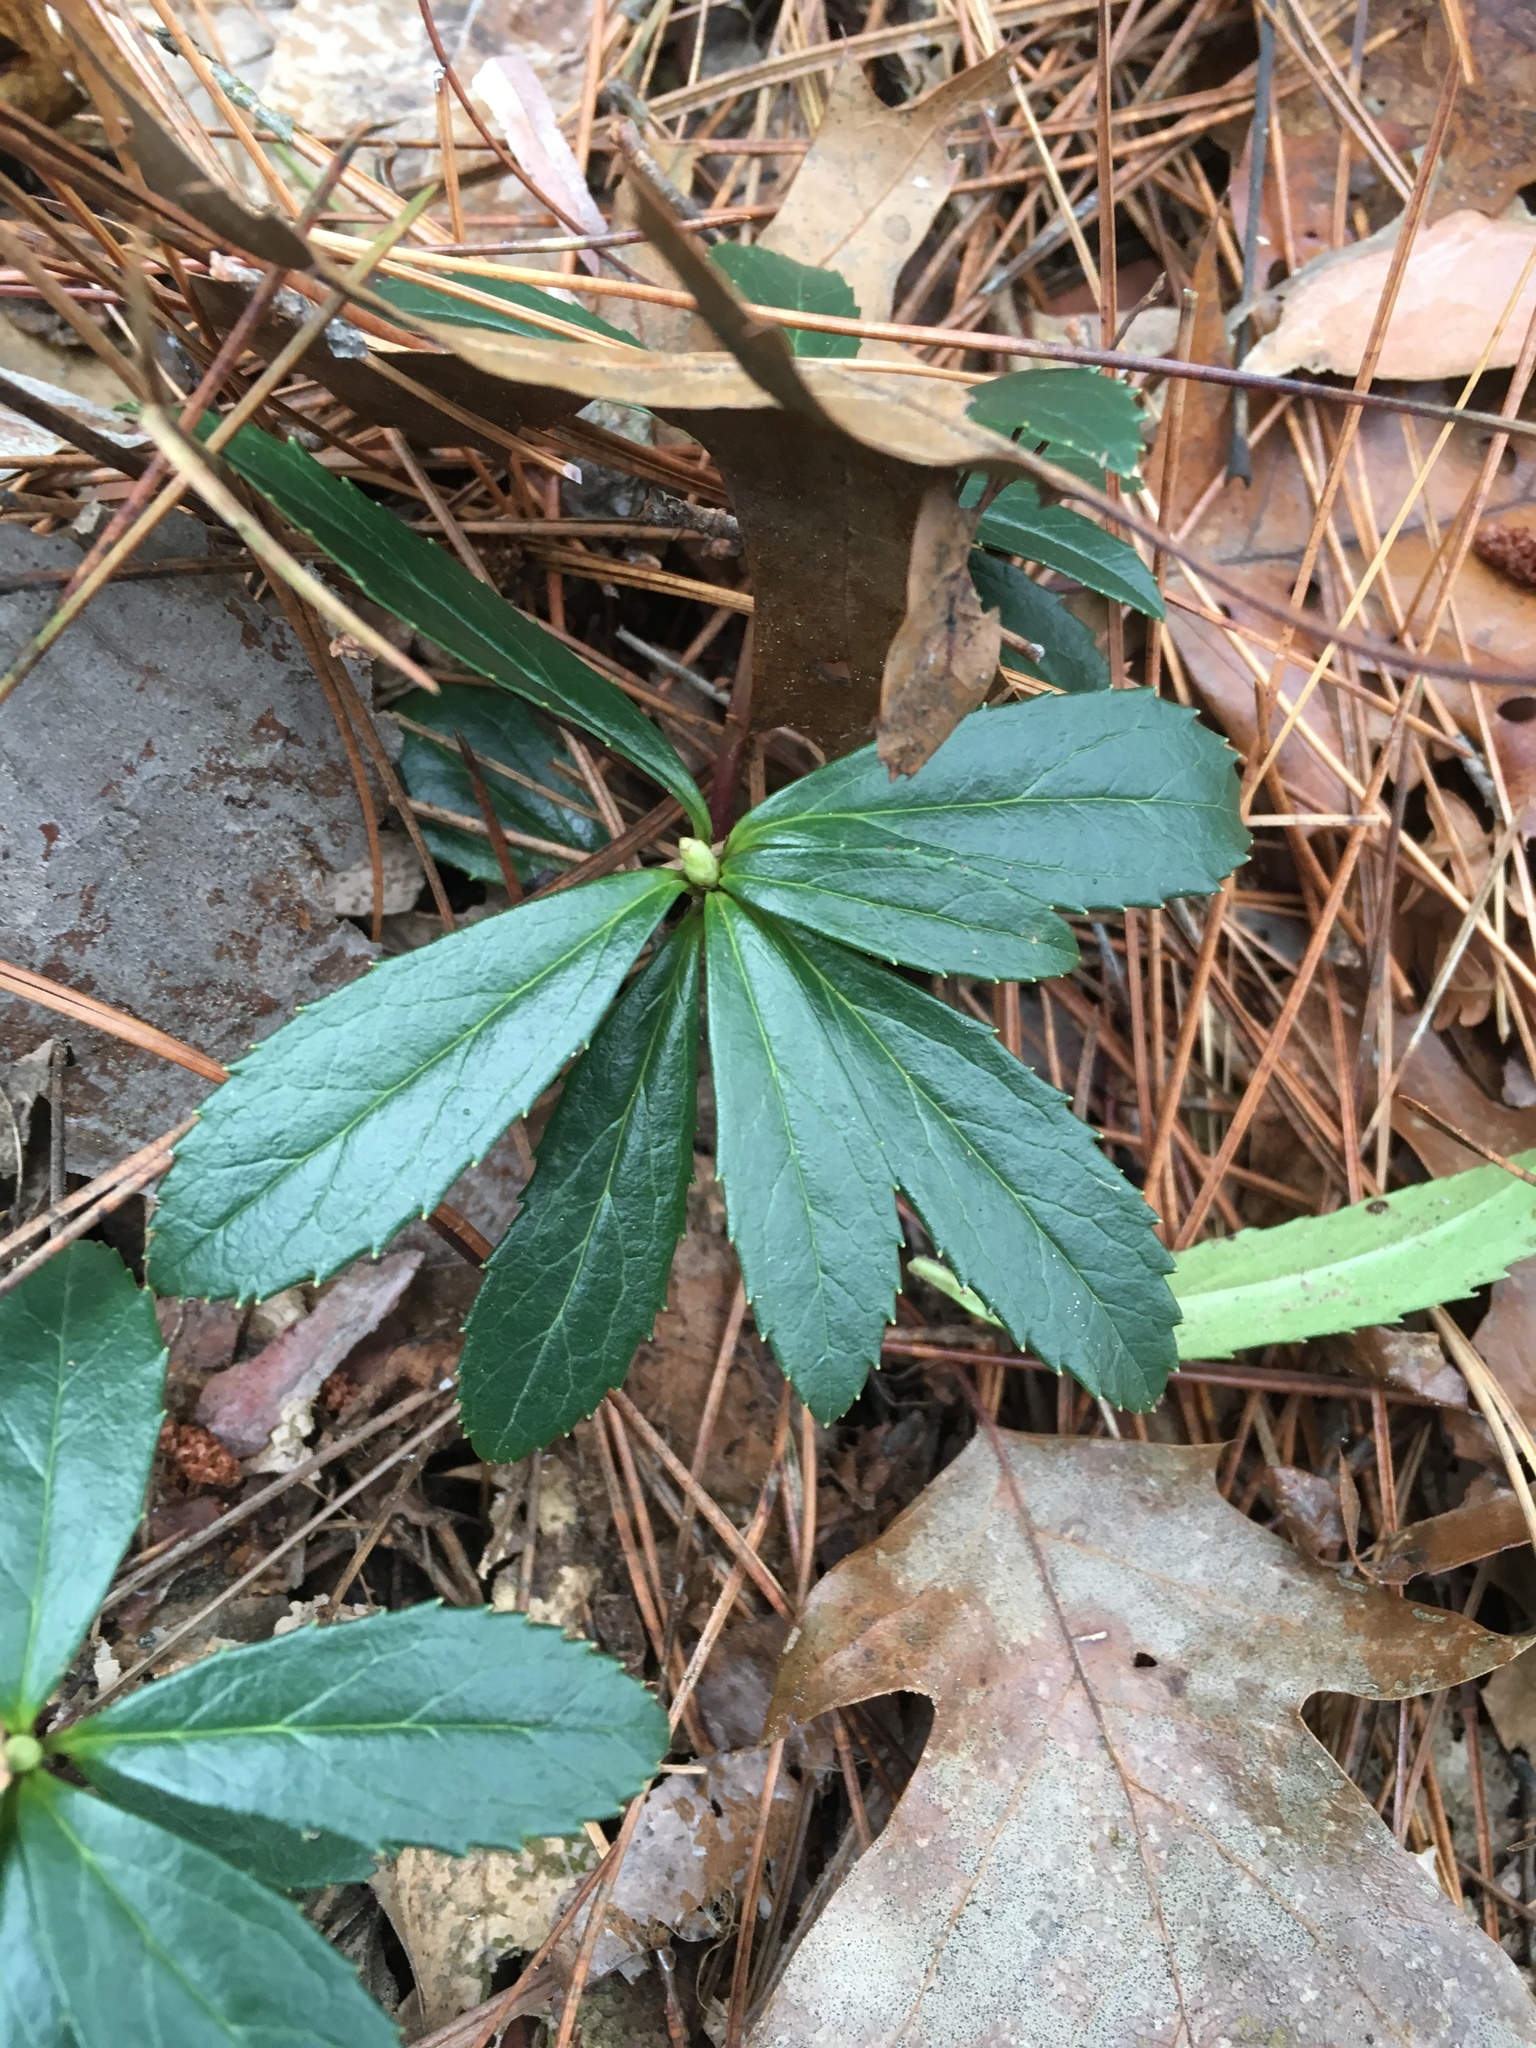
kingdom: Plantae
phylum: Tracheophyta
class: Magnoliopsida
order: Ericales
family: Ericaceae
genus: Chimaphila
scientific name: Chimaphila umbellata
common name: Pipsissewa
